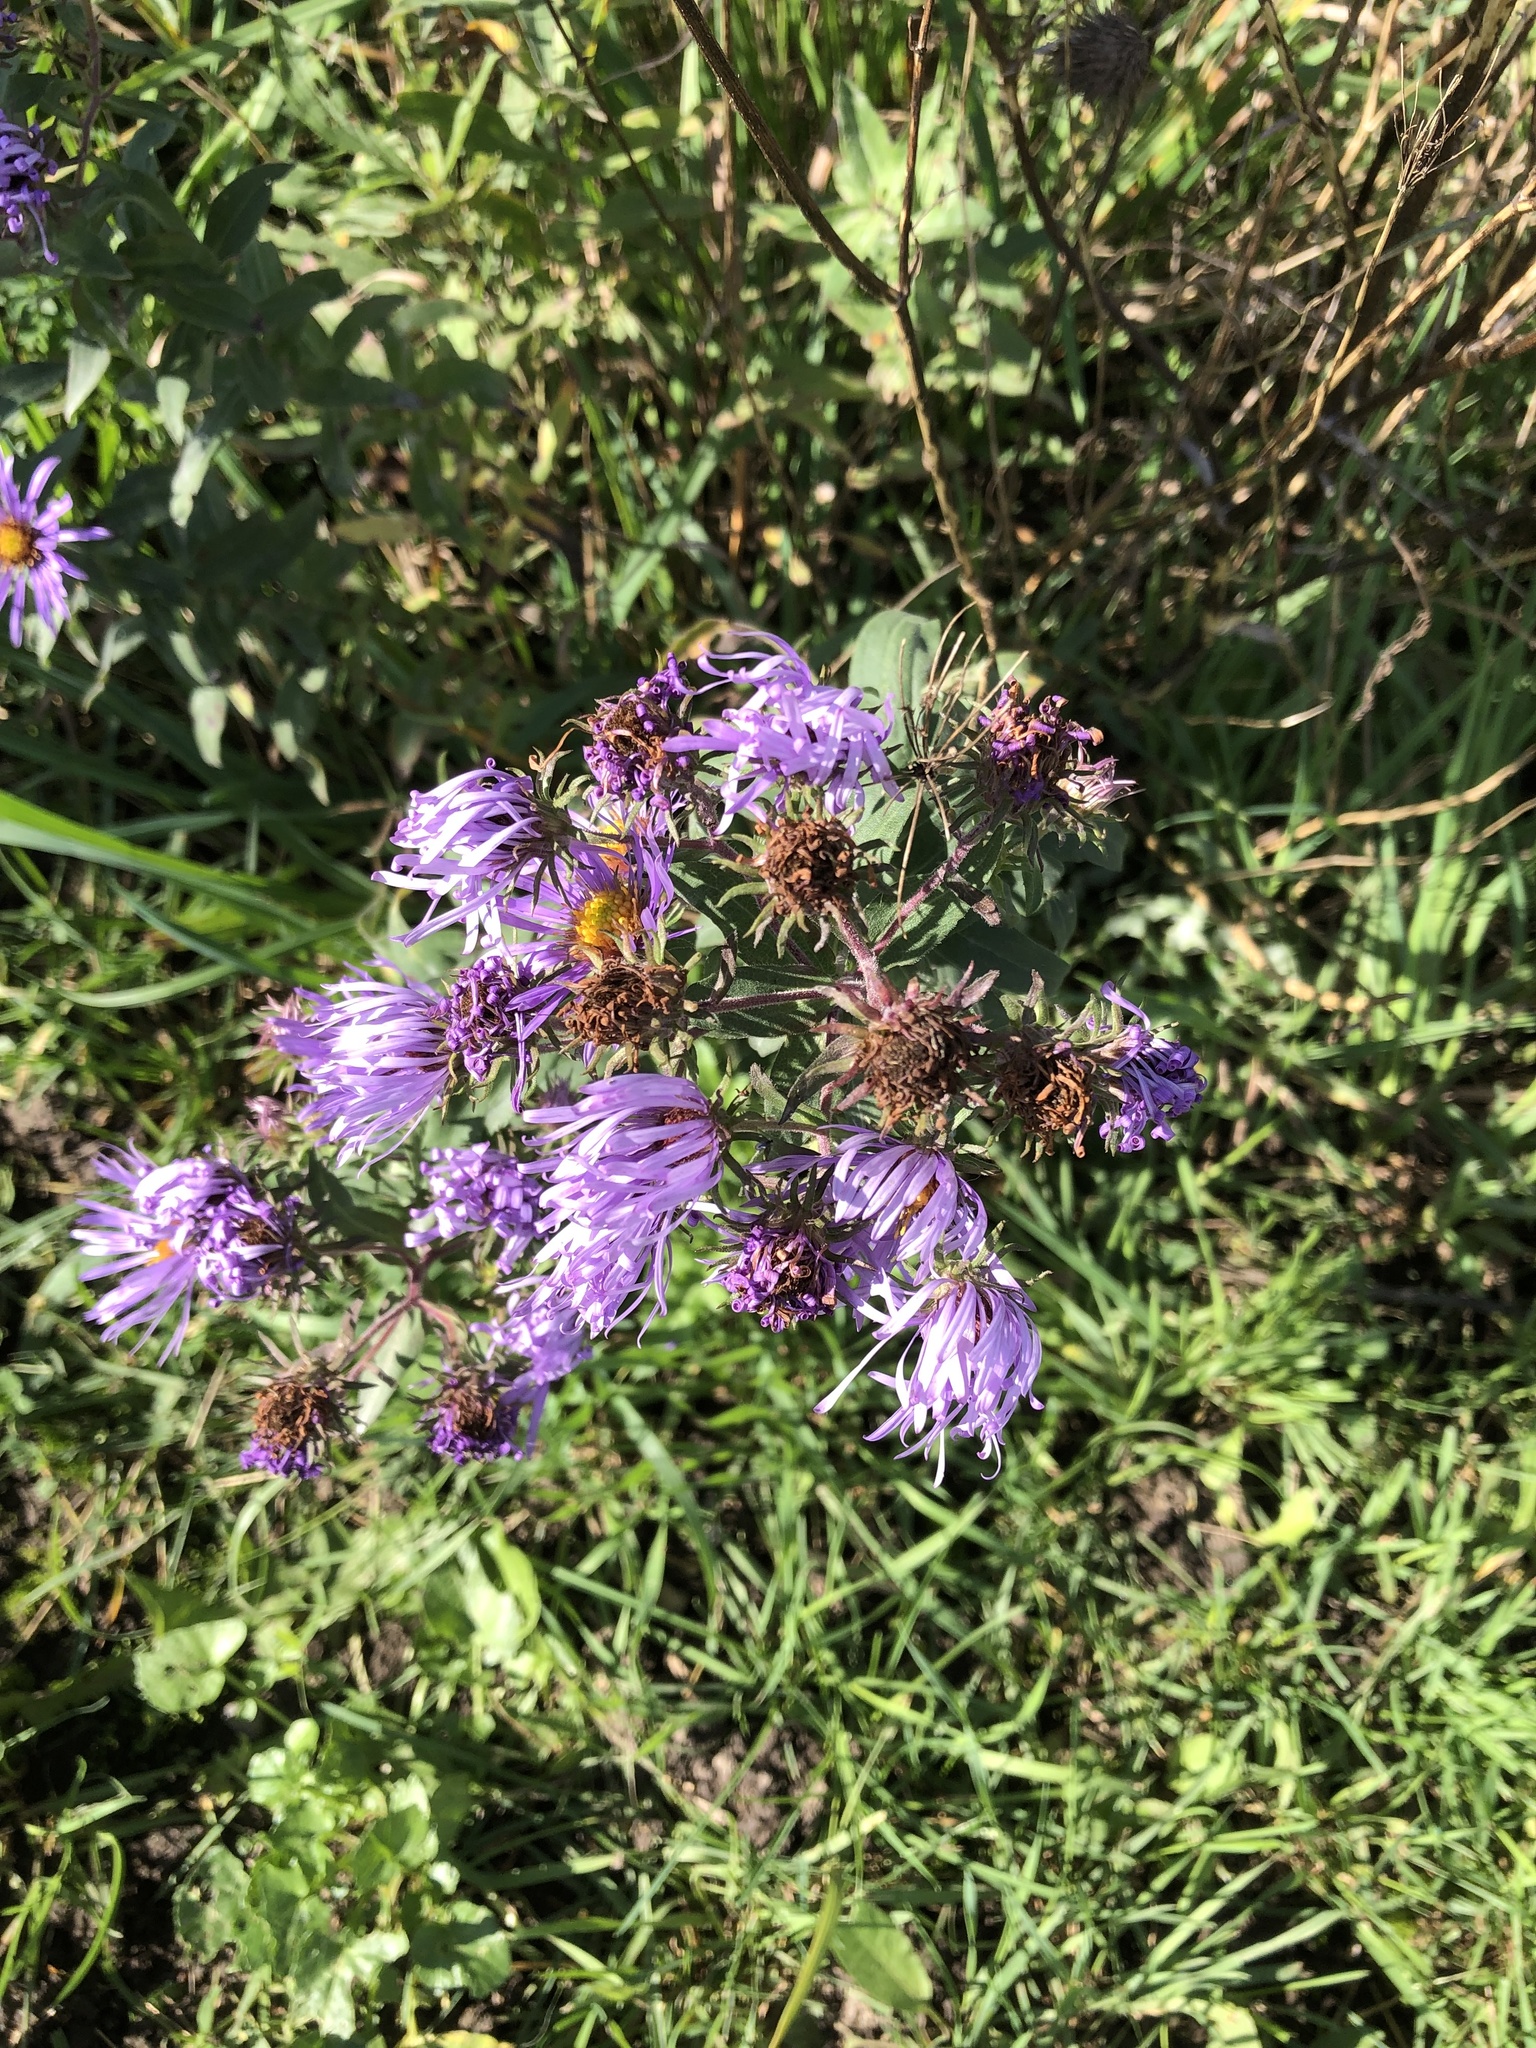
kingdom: Plantae
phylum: Tracheophyta
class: Magnoliopsida
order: Asterales
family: Asteraceae
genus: Symphyotrichum
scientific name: Symphyotrichum novae-angliae
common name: Michaelmas daisy
